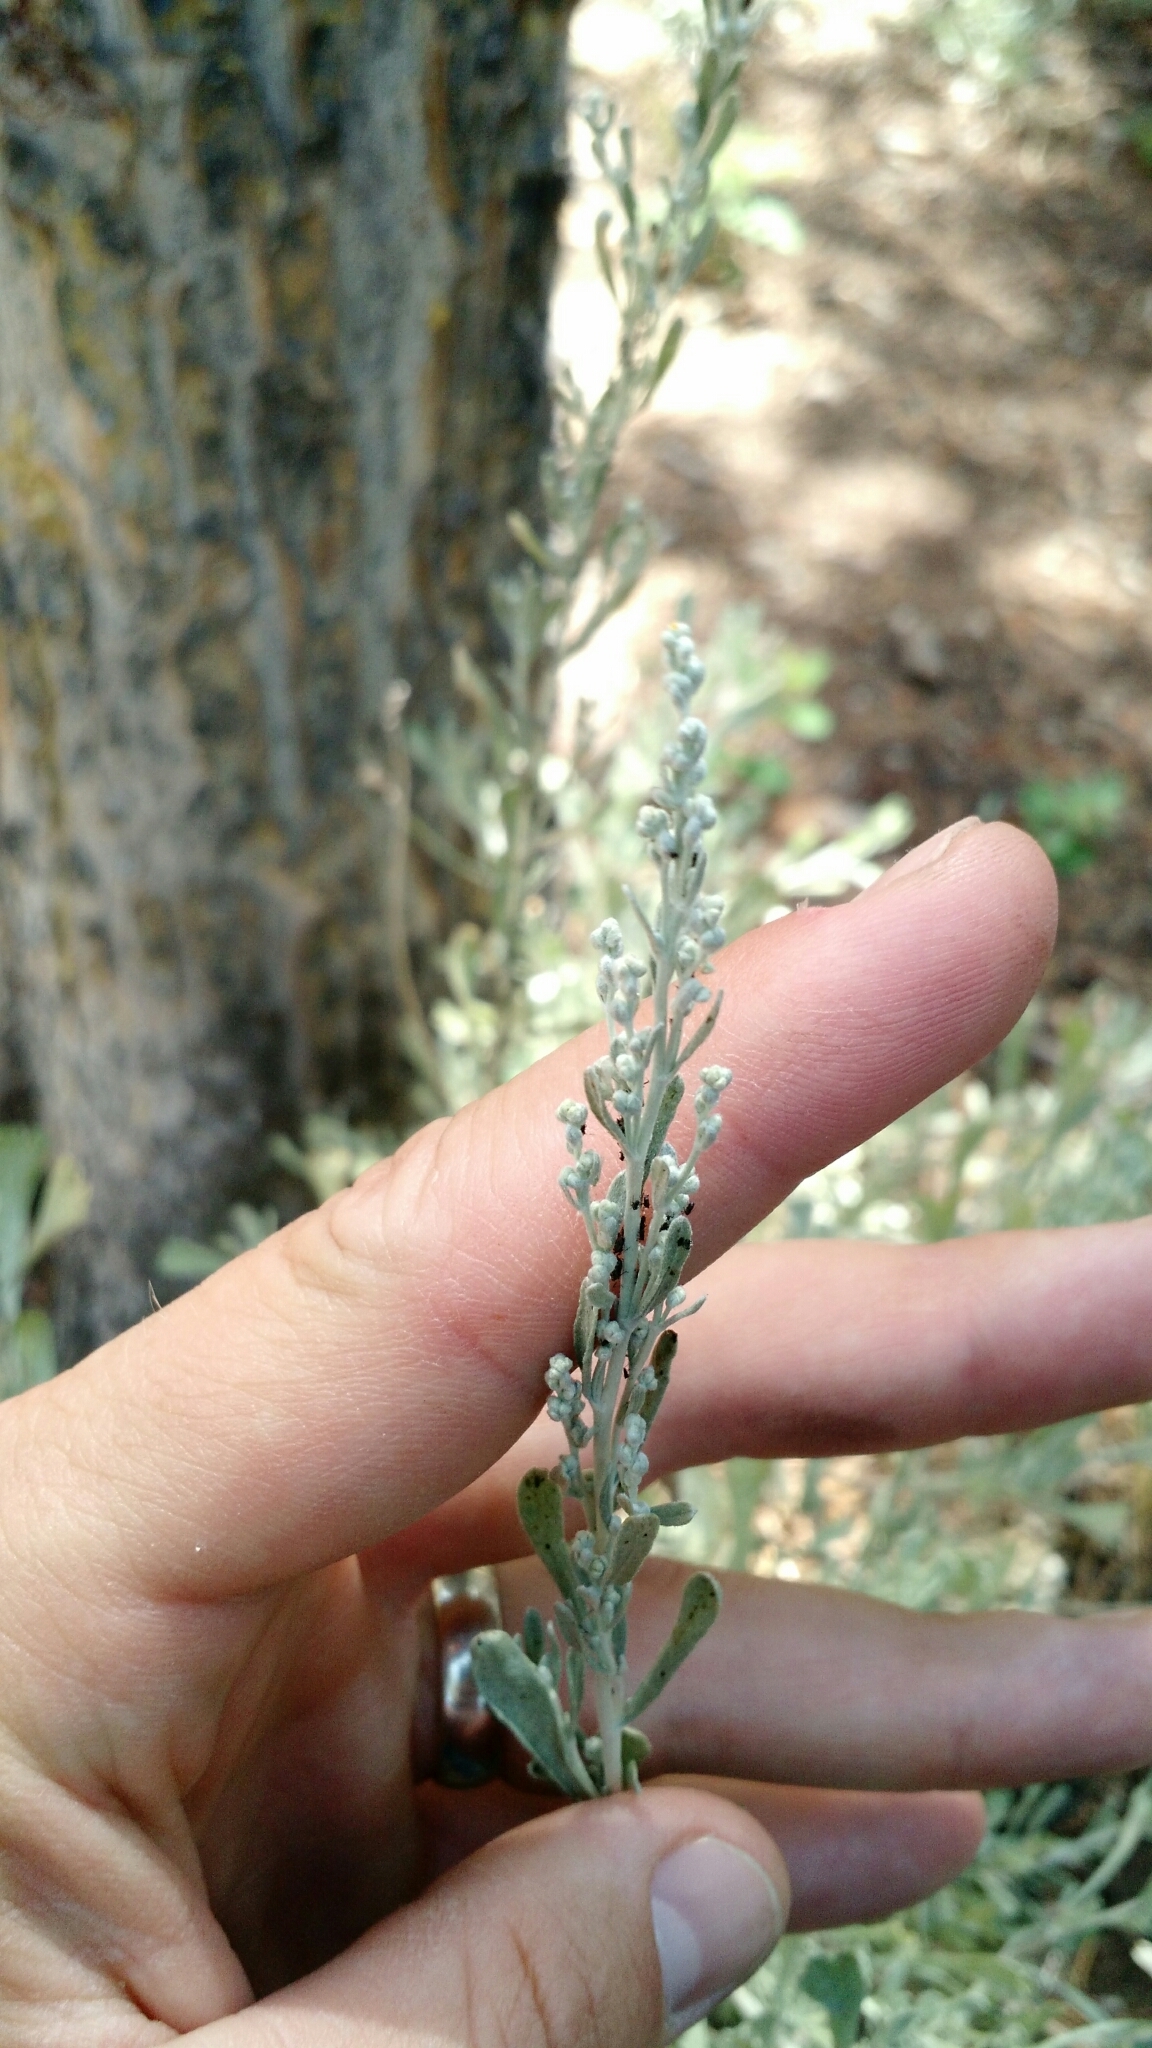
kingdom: Plantae
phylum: Tracheophyta
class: Magnoliopsida
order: Asterales
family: Asteraceae
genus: Artemisia
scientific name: Artemisia tridentata
